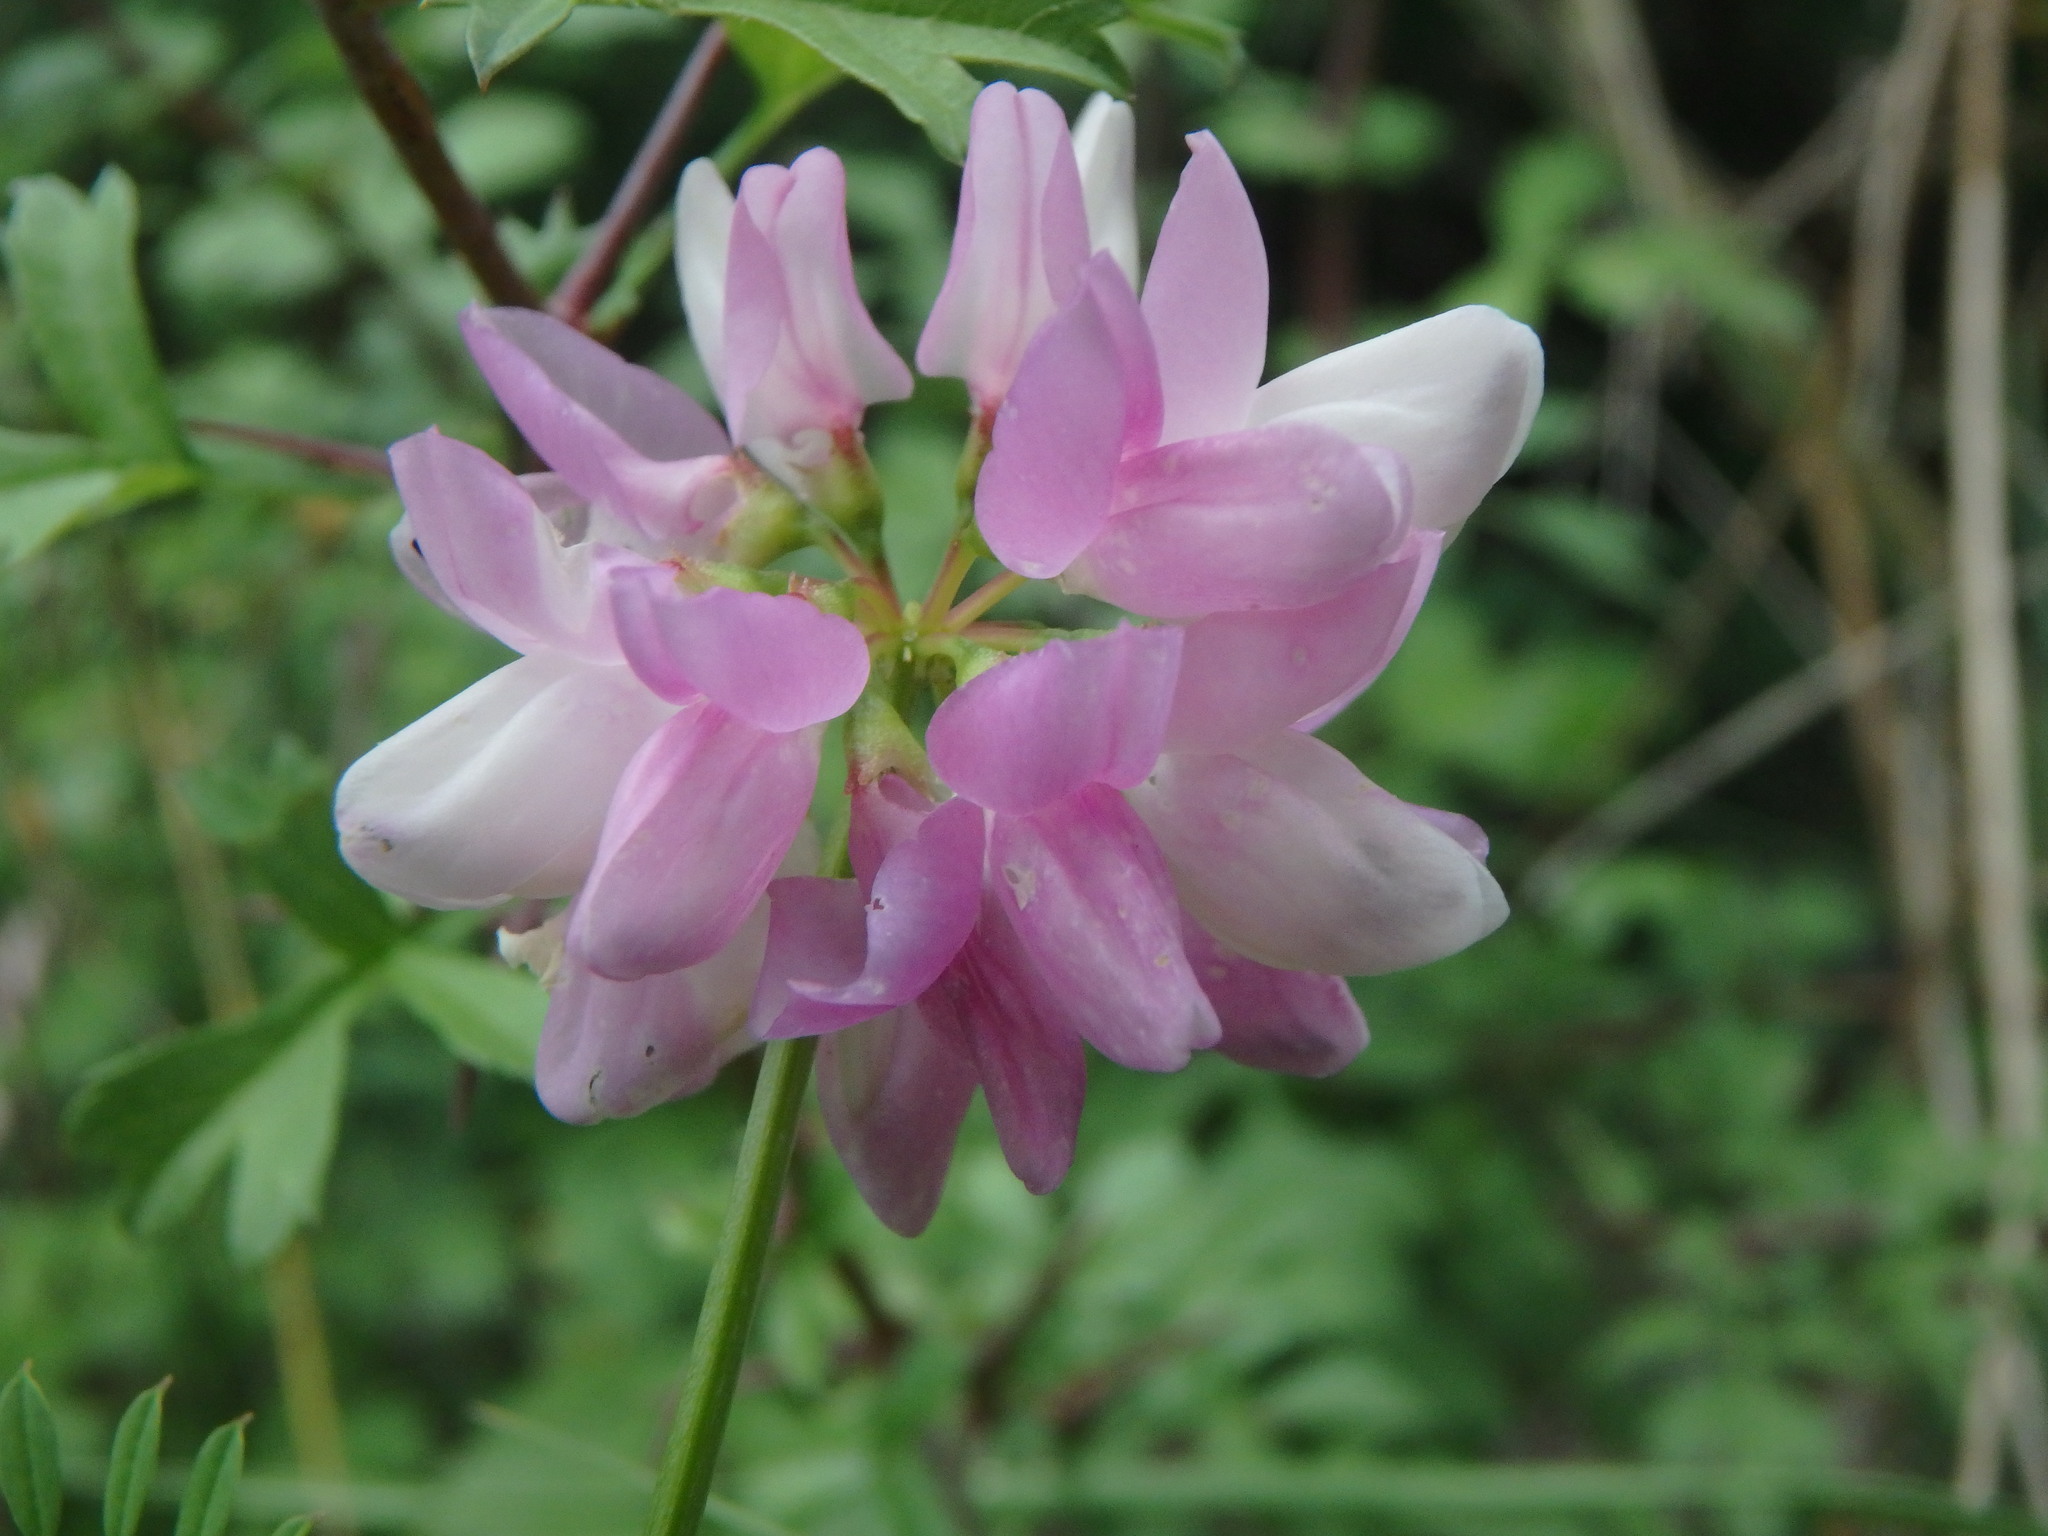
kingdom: Plantae
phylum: Tracheophyta
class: Magnoliopsida
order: Fabales
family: Fabaceae
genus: Coronilla
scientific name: Coronilla varia
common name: Crownvetch
